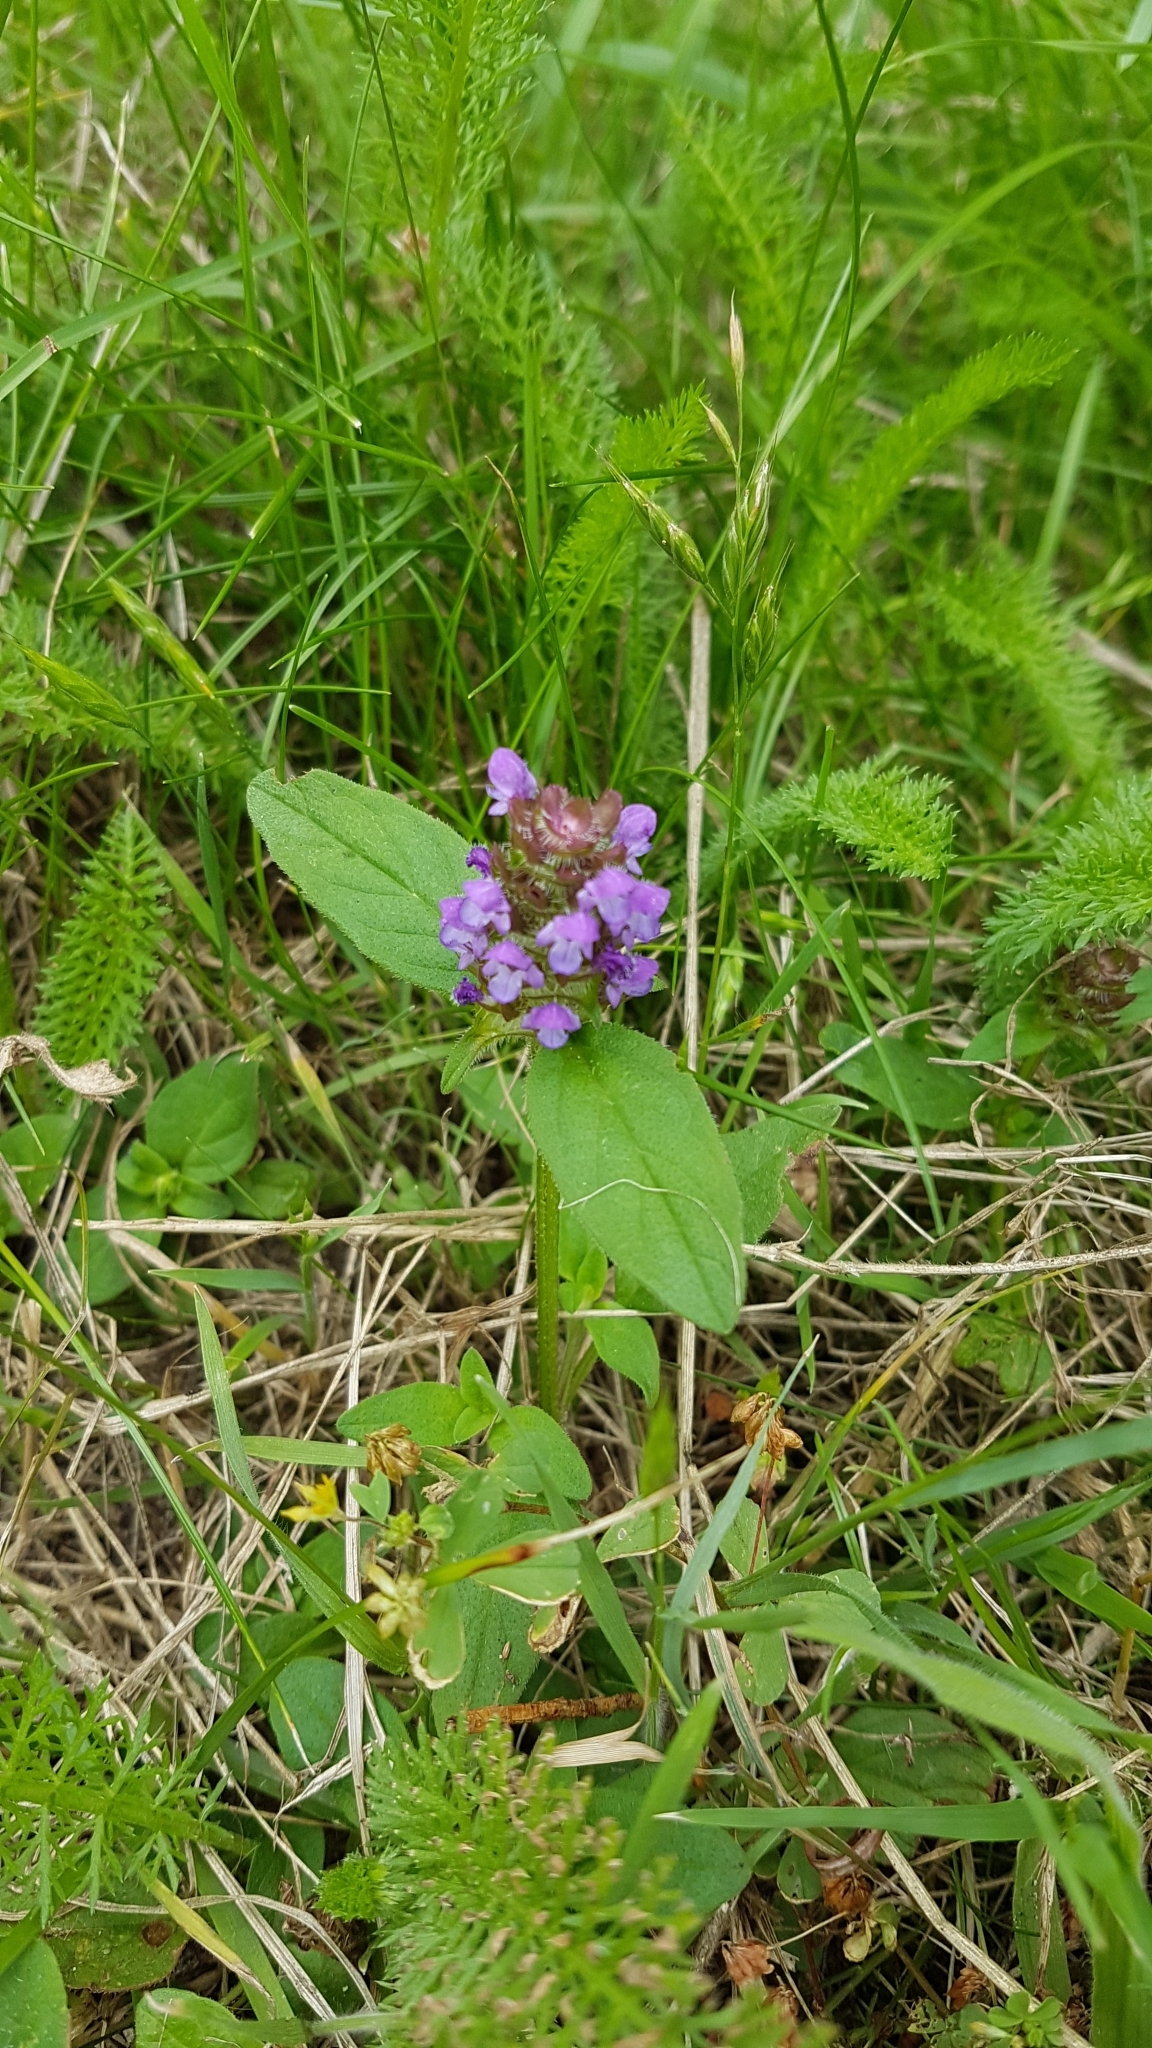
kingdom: Plantae
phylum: Tracheophyta
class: Magnoliopsida
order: Lamiales
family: Lamiaceae
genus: Prunella
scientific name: Prunella vulgaris
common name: Heal-all
